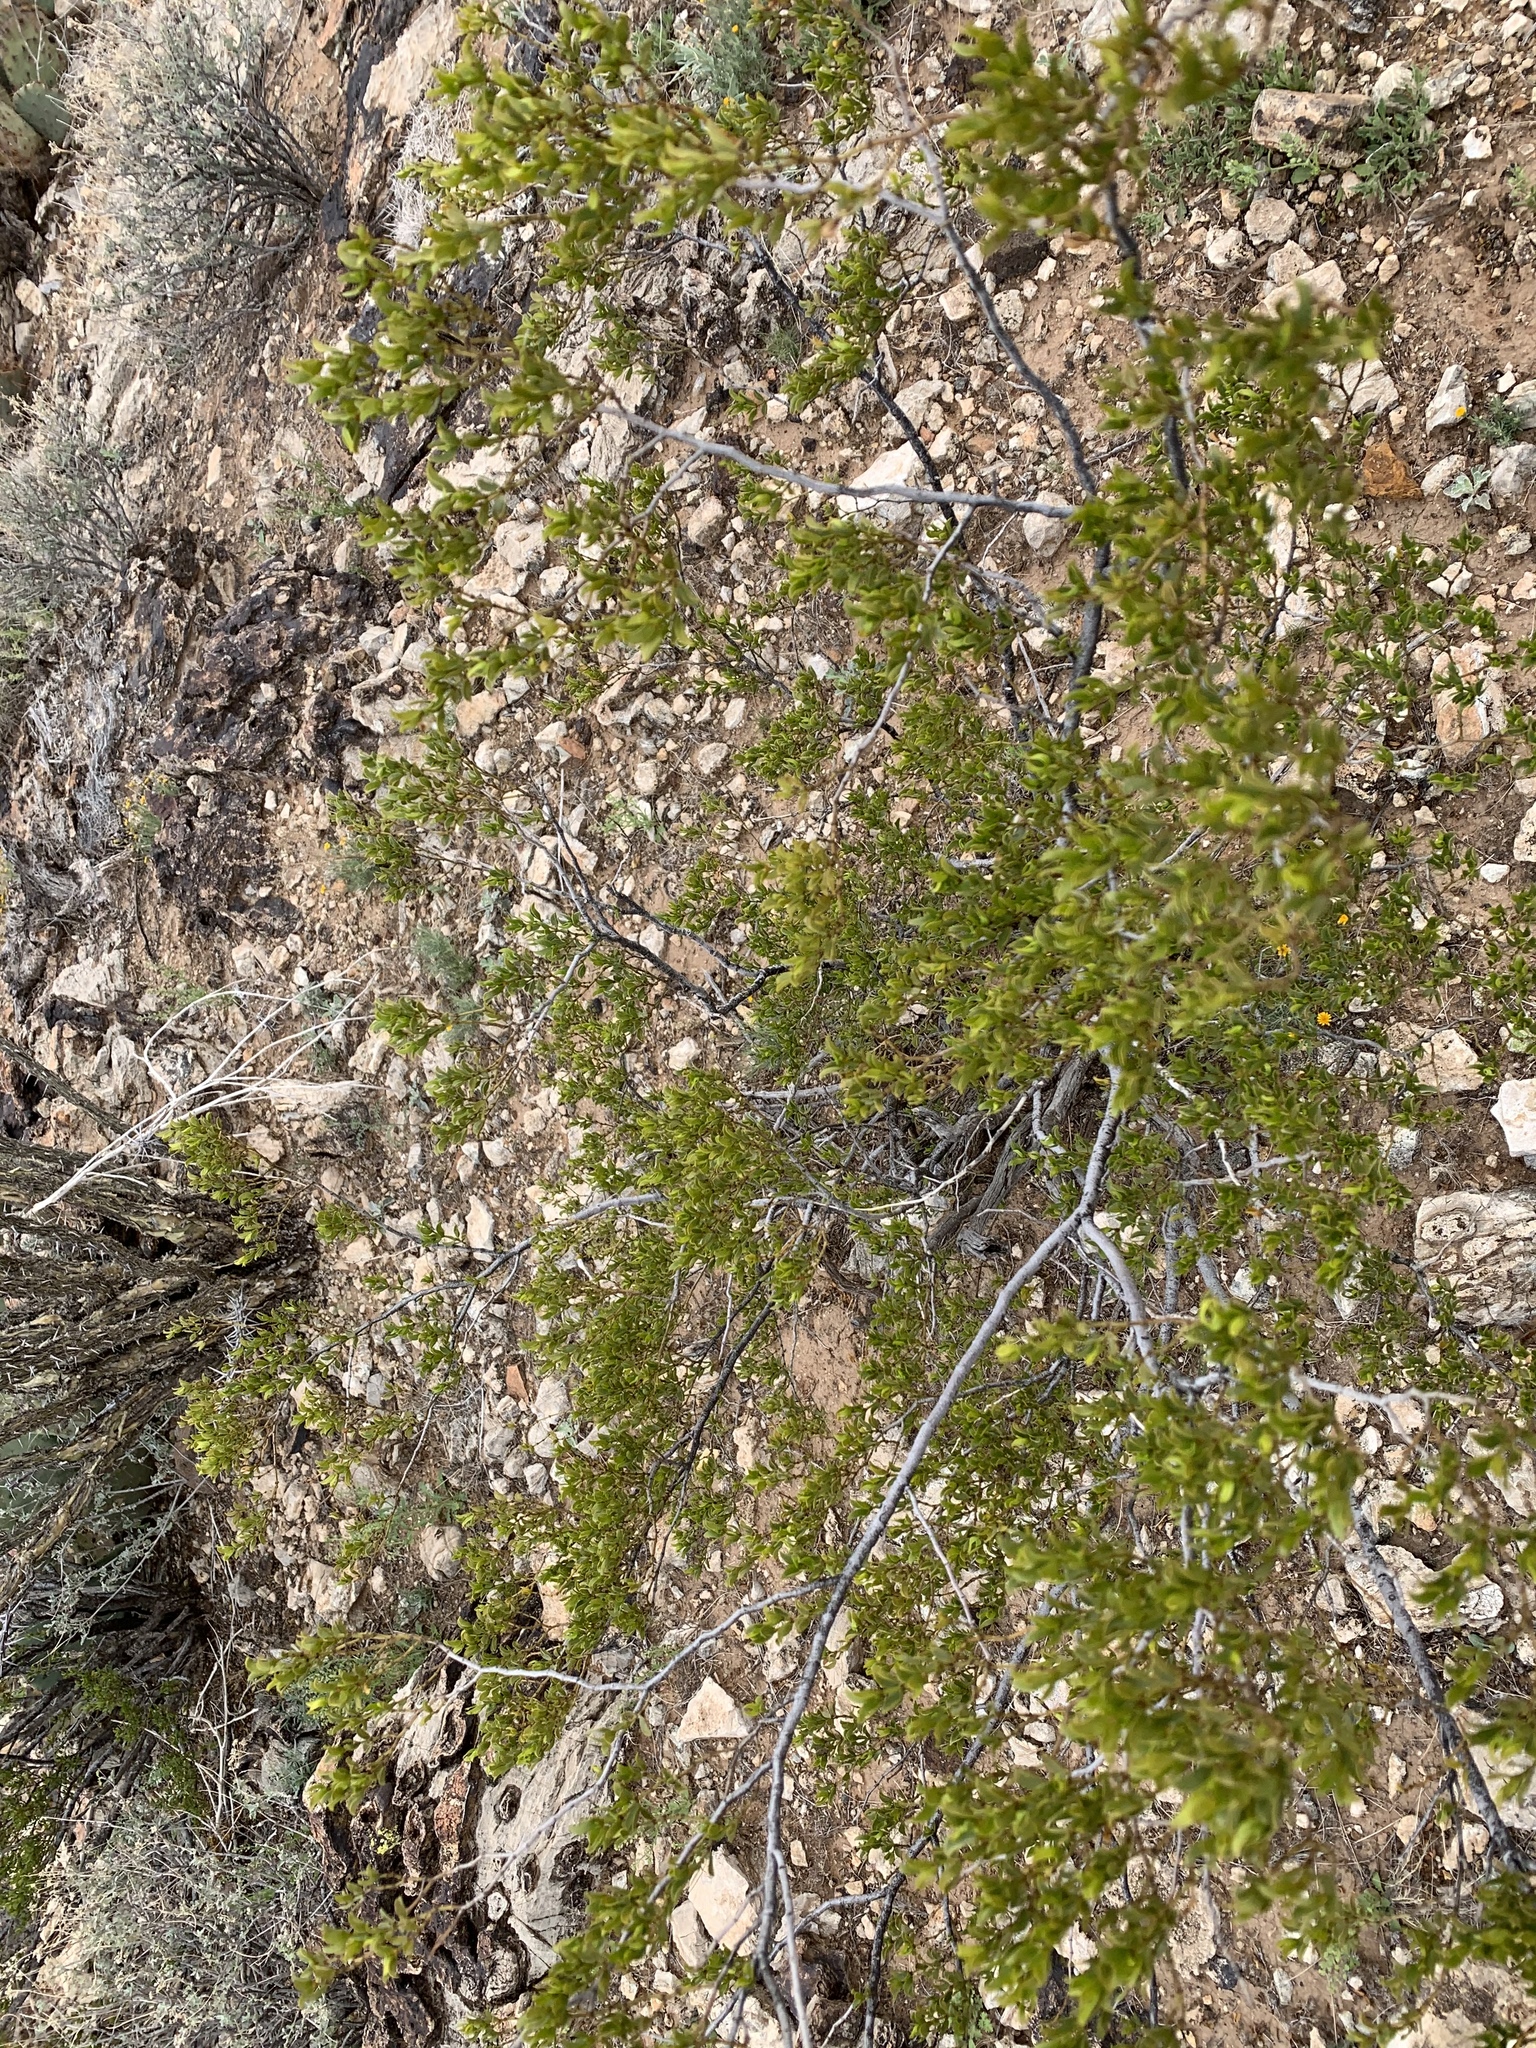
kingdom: Plantae
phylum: Tracheophyta
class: Magnoliopsida
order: Zygophyllales
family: Zygophyllaceae
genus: Larrea
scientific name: Larrea tridentata
